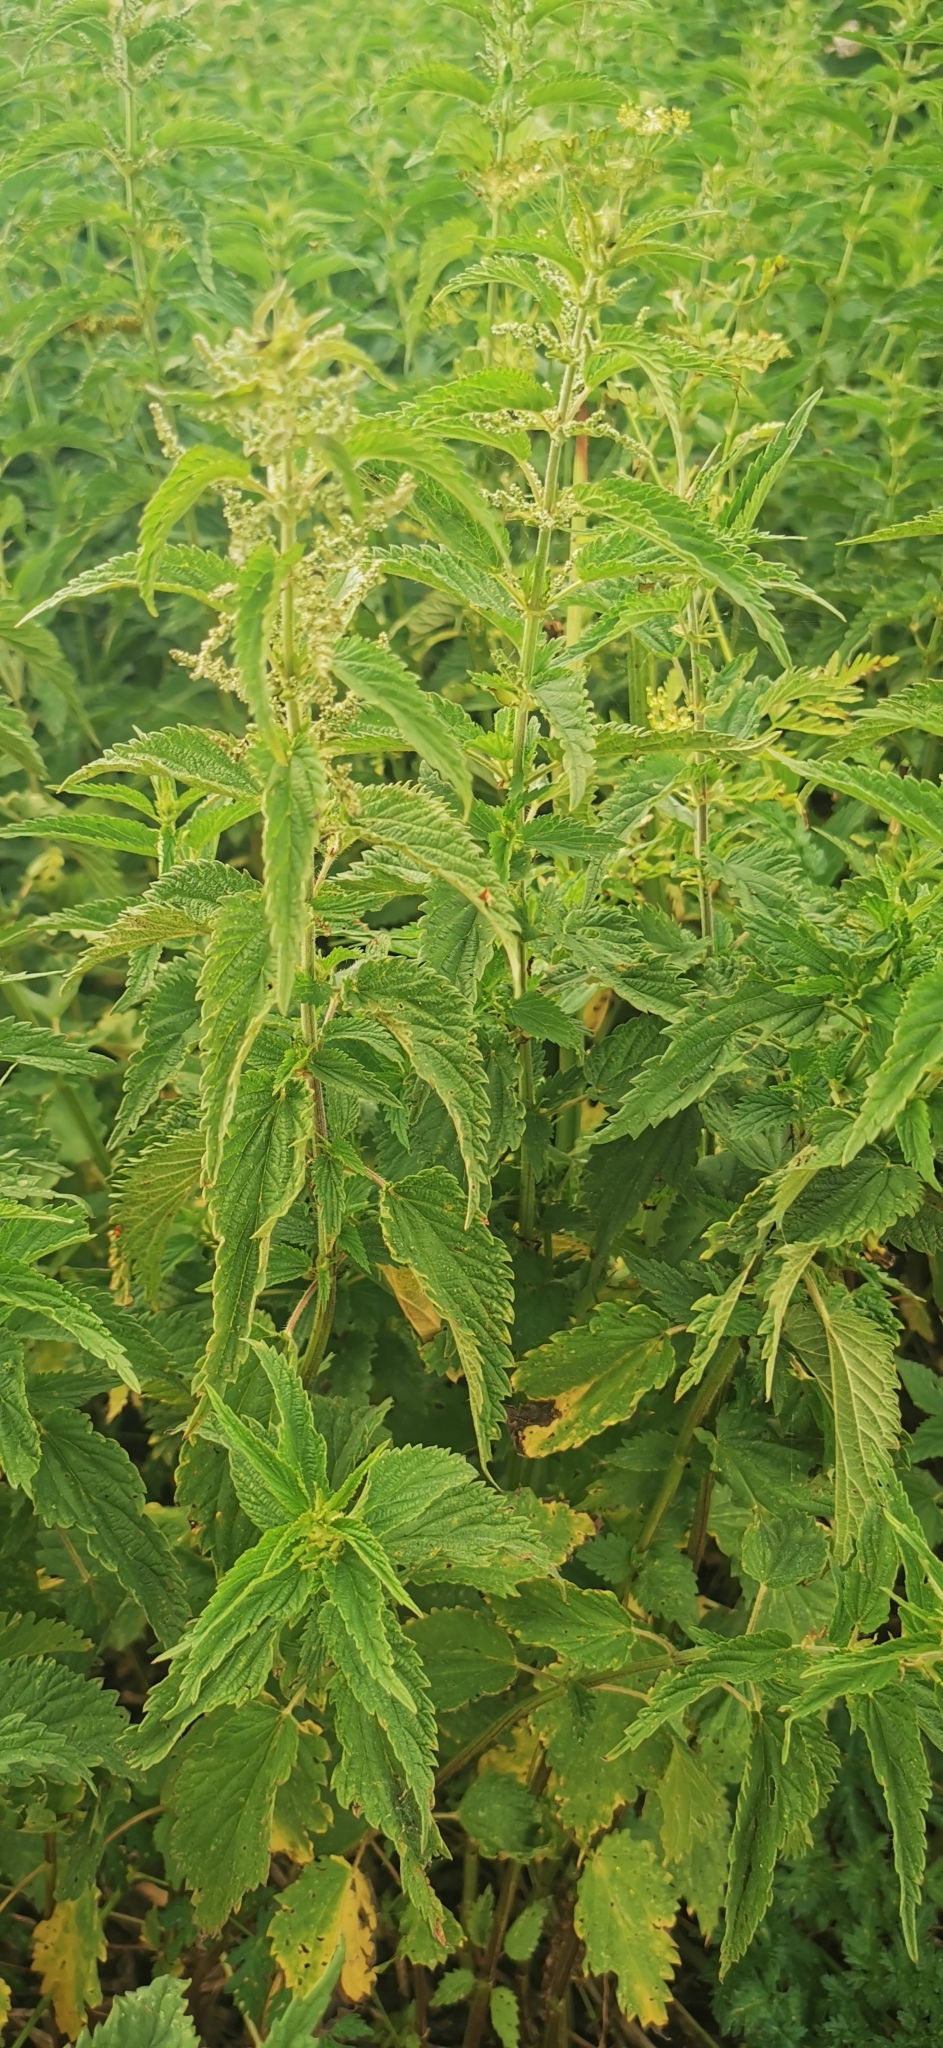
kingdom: Plantae
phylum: Tracheophyta
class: Magnoliopsida
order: Rosales
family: Urticaceae
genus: Urtica
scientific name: Urtica dioica
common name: Common nettle
